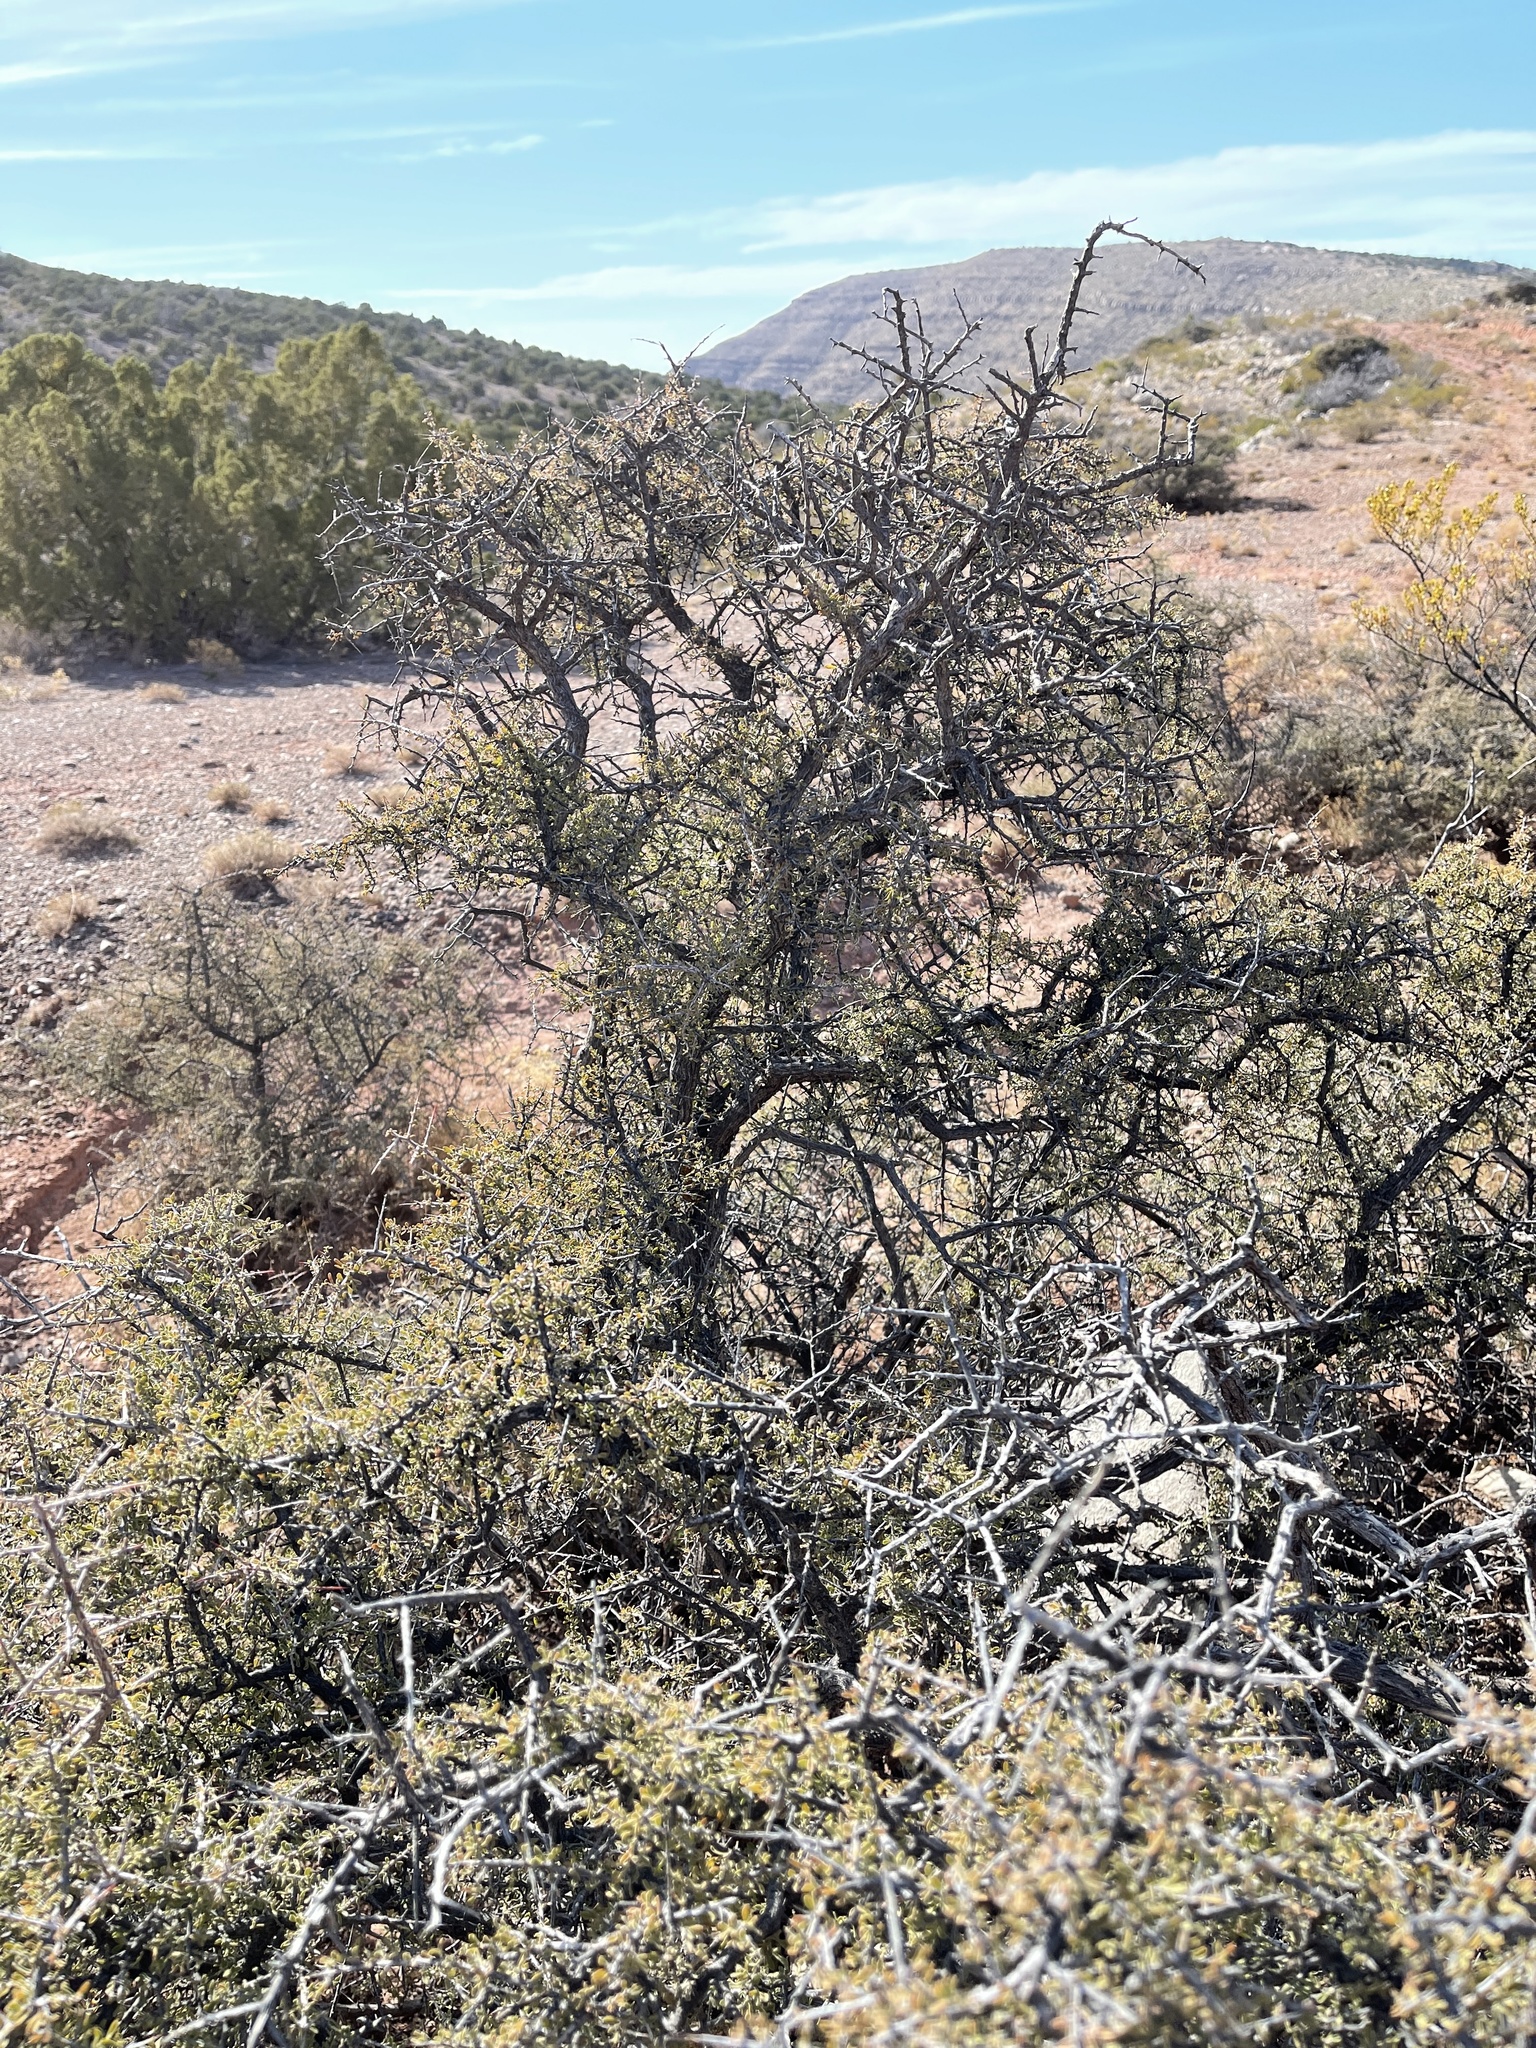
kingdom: Plantae
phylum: Tracheophyta
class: Magnoliopsida
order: Rosales
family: Rhamnaceae
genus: Condalia
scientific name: Condalia warnockii
